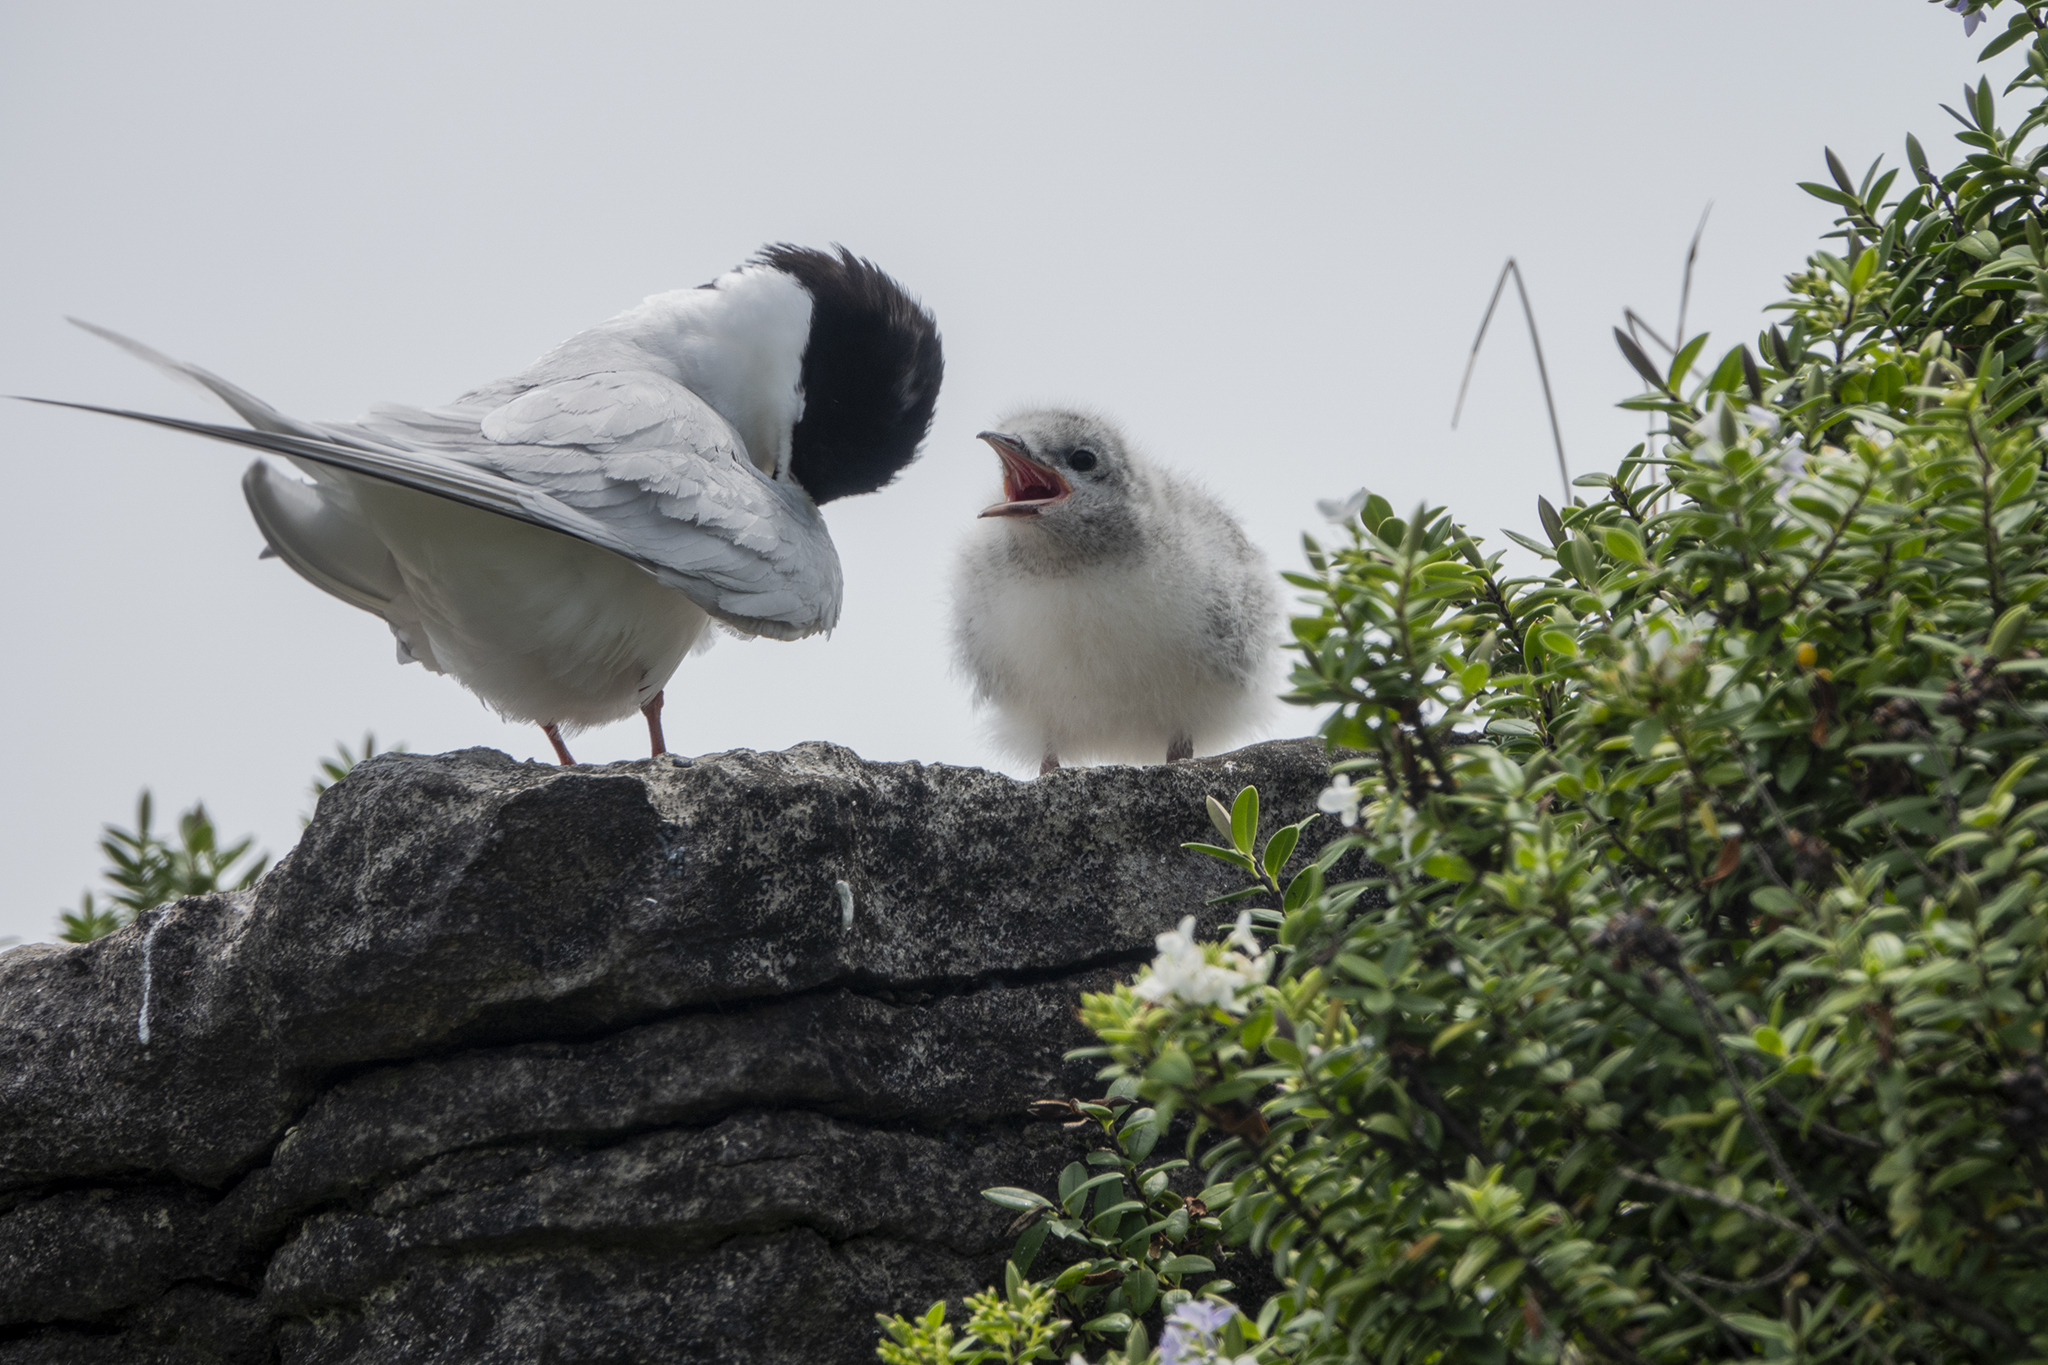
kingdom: Animalia
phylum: Chordata
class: Aves
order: Charadriiformes
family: Laridae
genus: Sterna
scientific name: Sterna striata
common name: White-fronted tern
